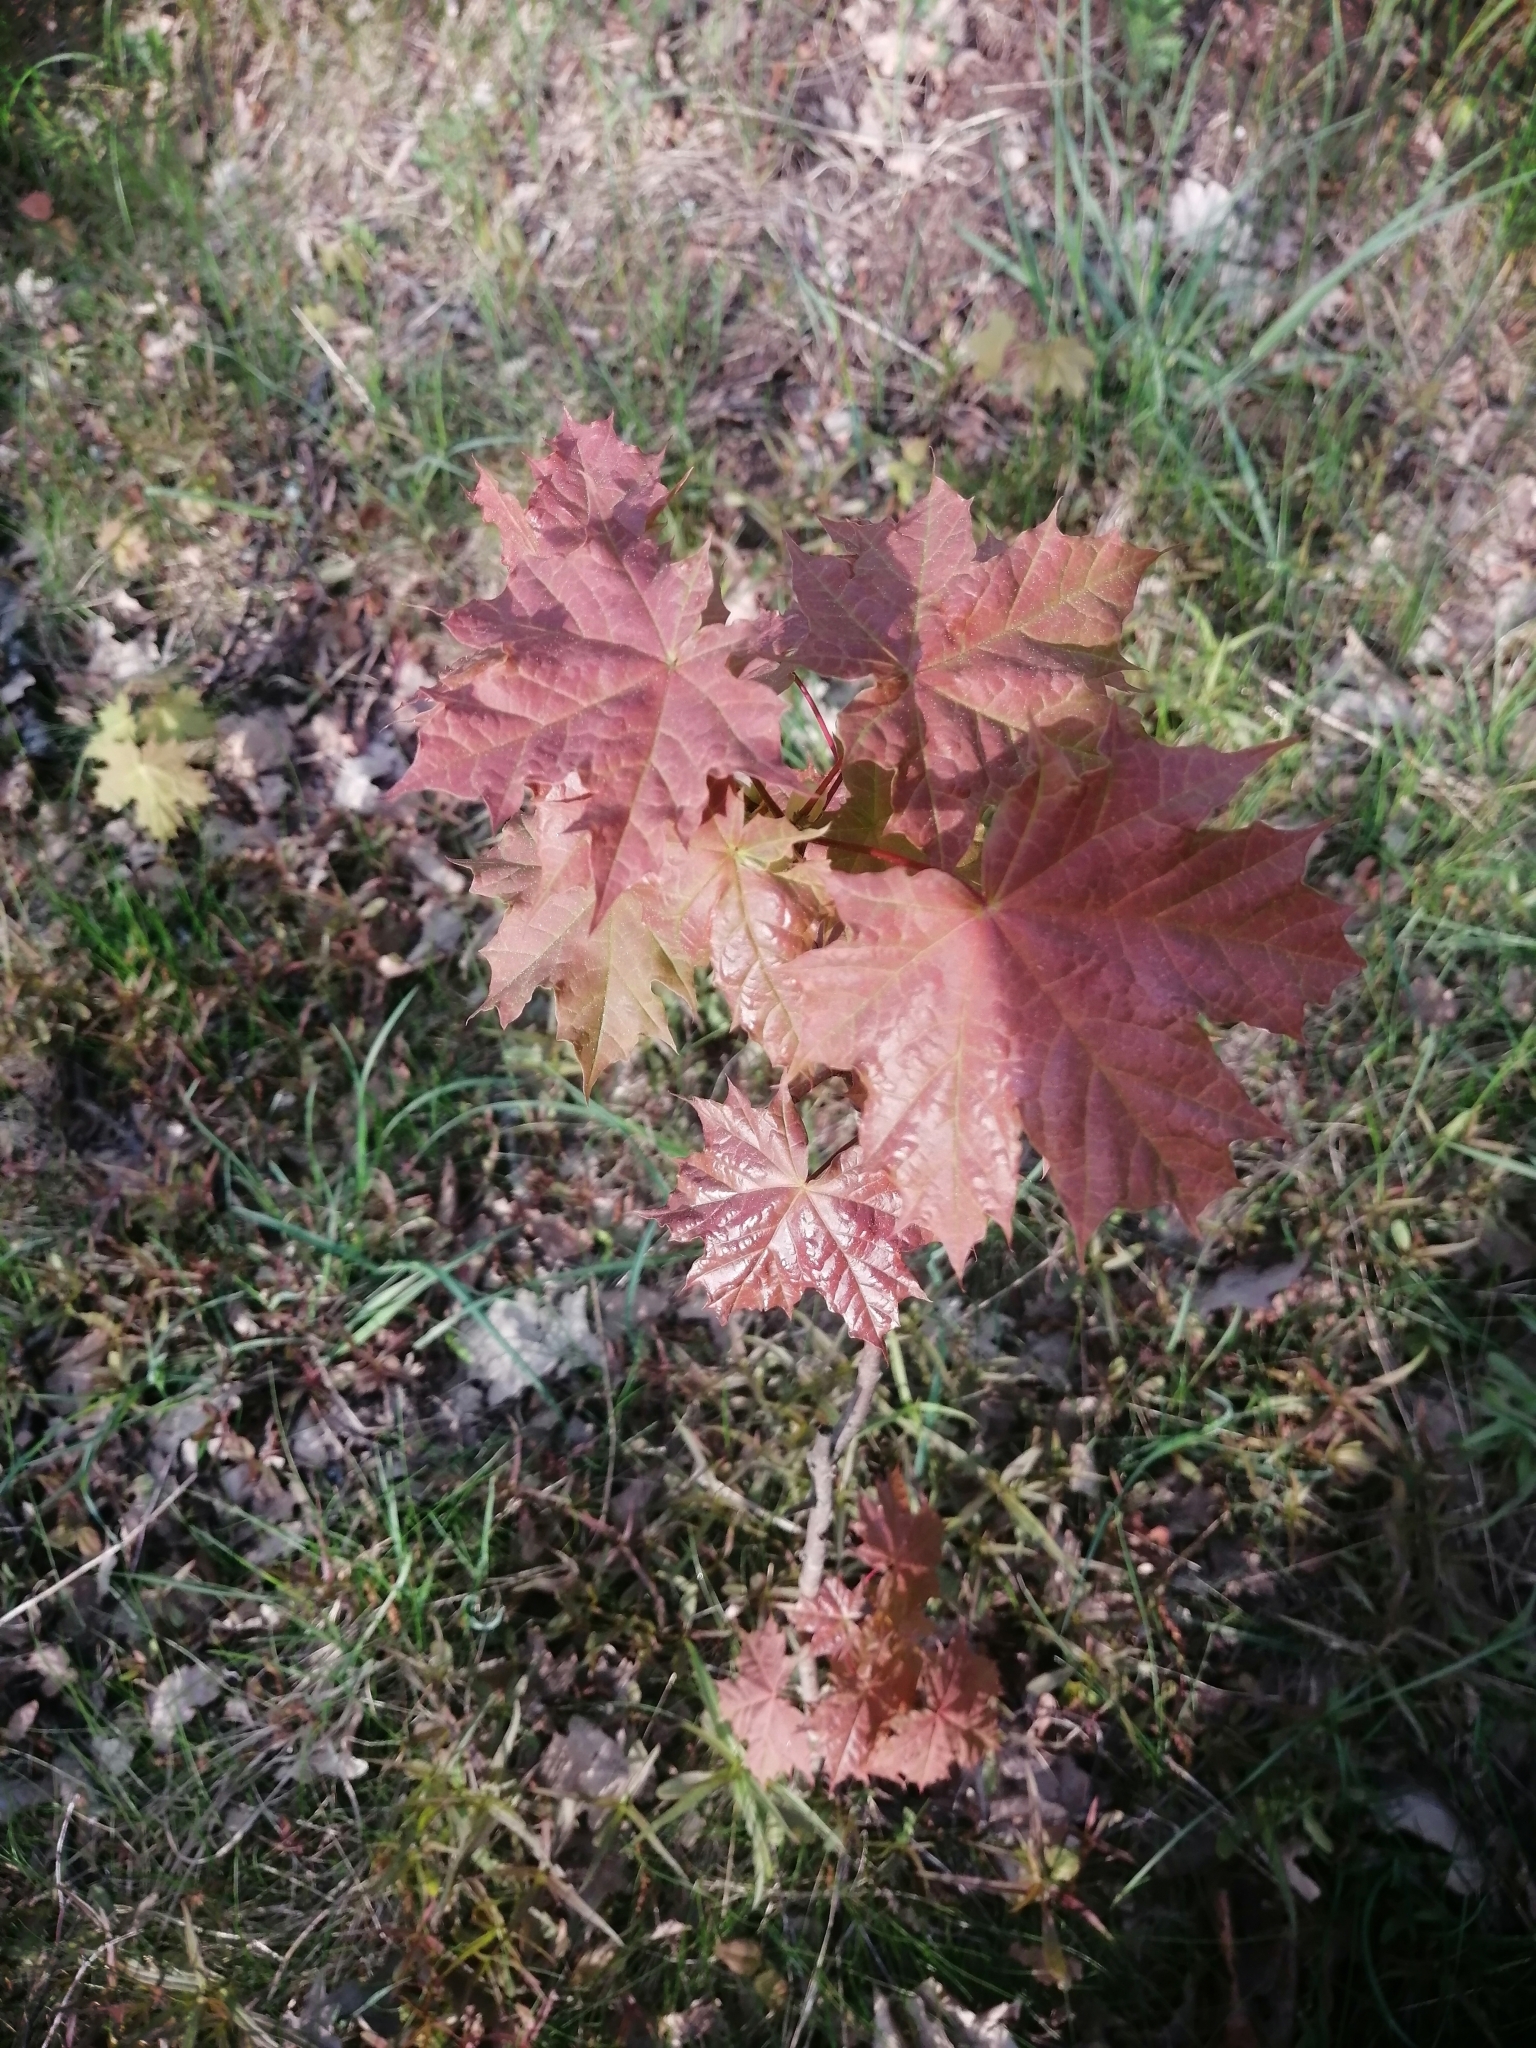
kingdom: Plantae
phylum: Tracheophyta
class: Magnoliopsida
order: Sapindales
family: Sapindaceae
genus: Acer
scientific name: Acer platanoides
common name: Norway maple
